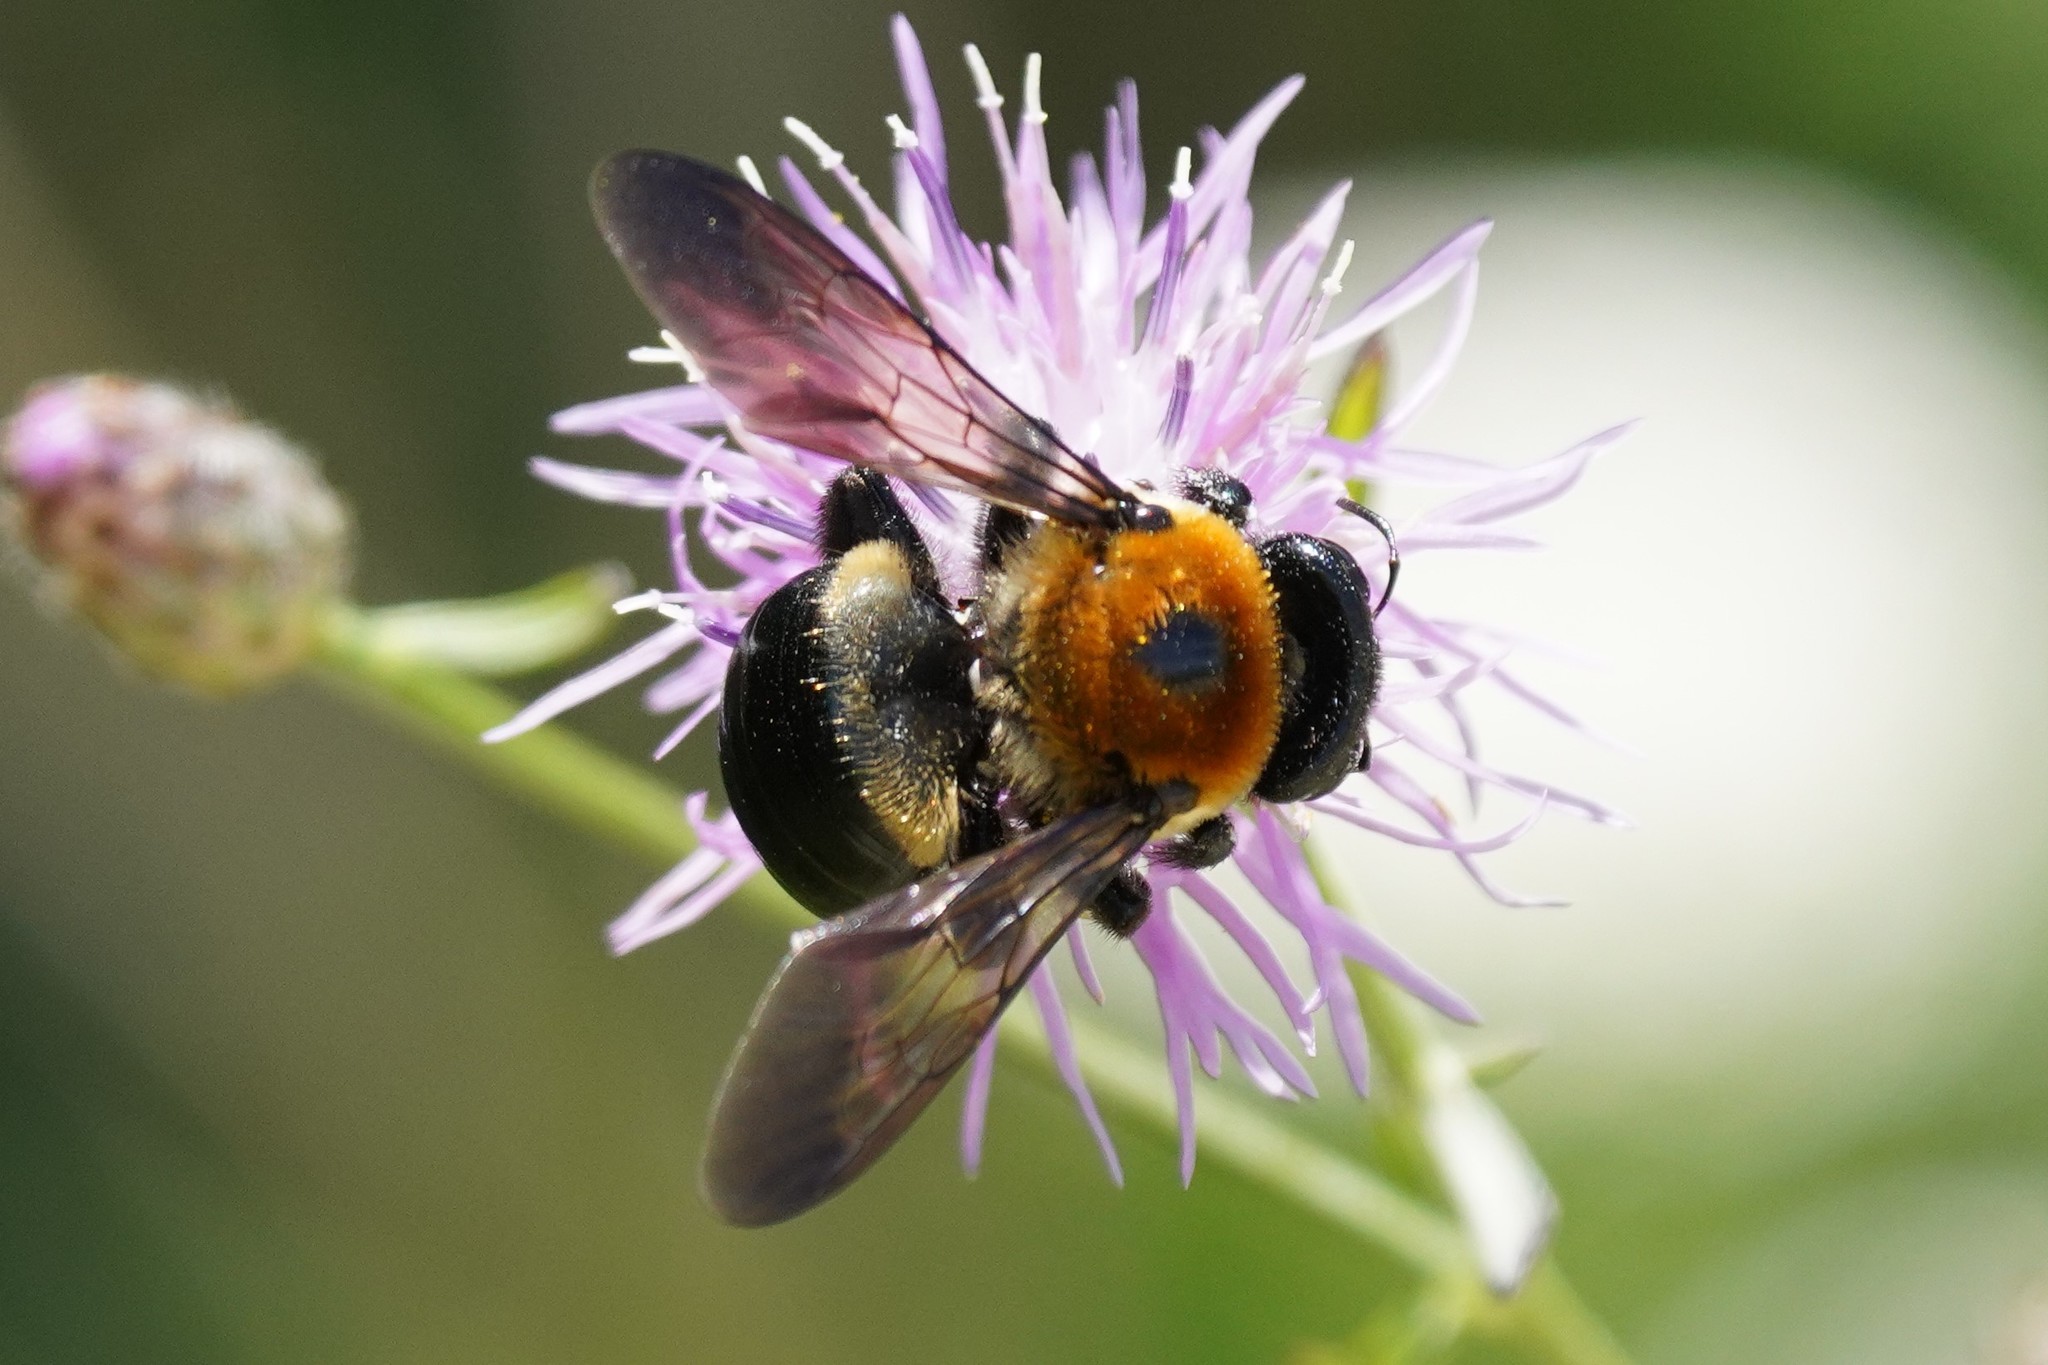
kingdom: Animalia
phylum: Arthropoda
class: Insecta
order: Hymenoptera
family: Apidae
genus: Xylocopa
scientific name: Xylocopa virginica
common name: Carpenter bee
